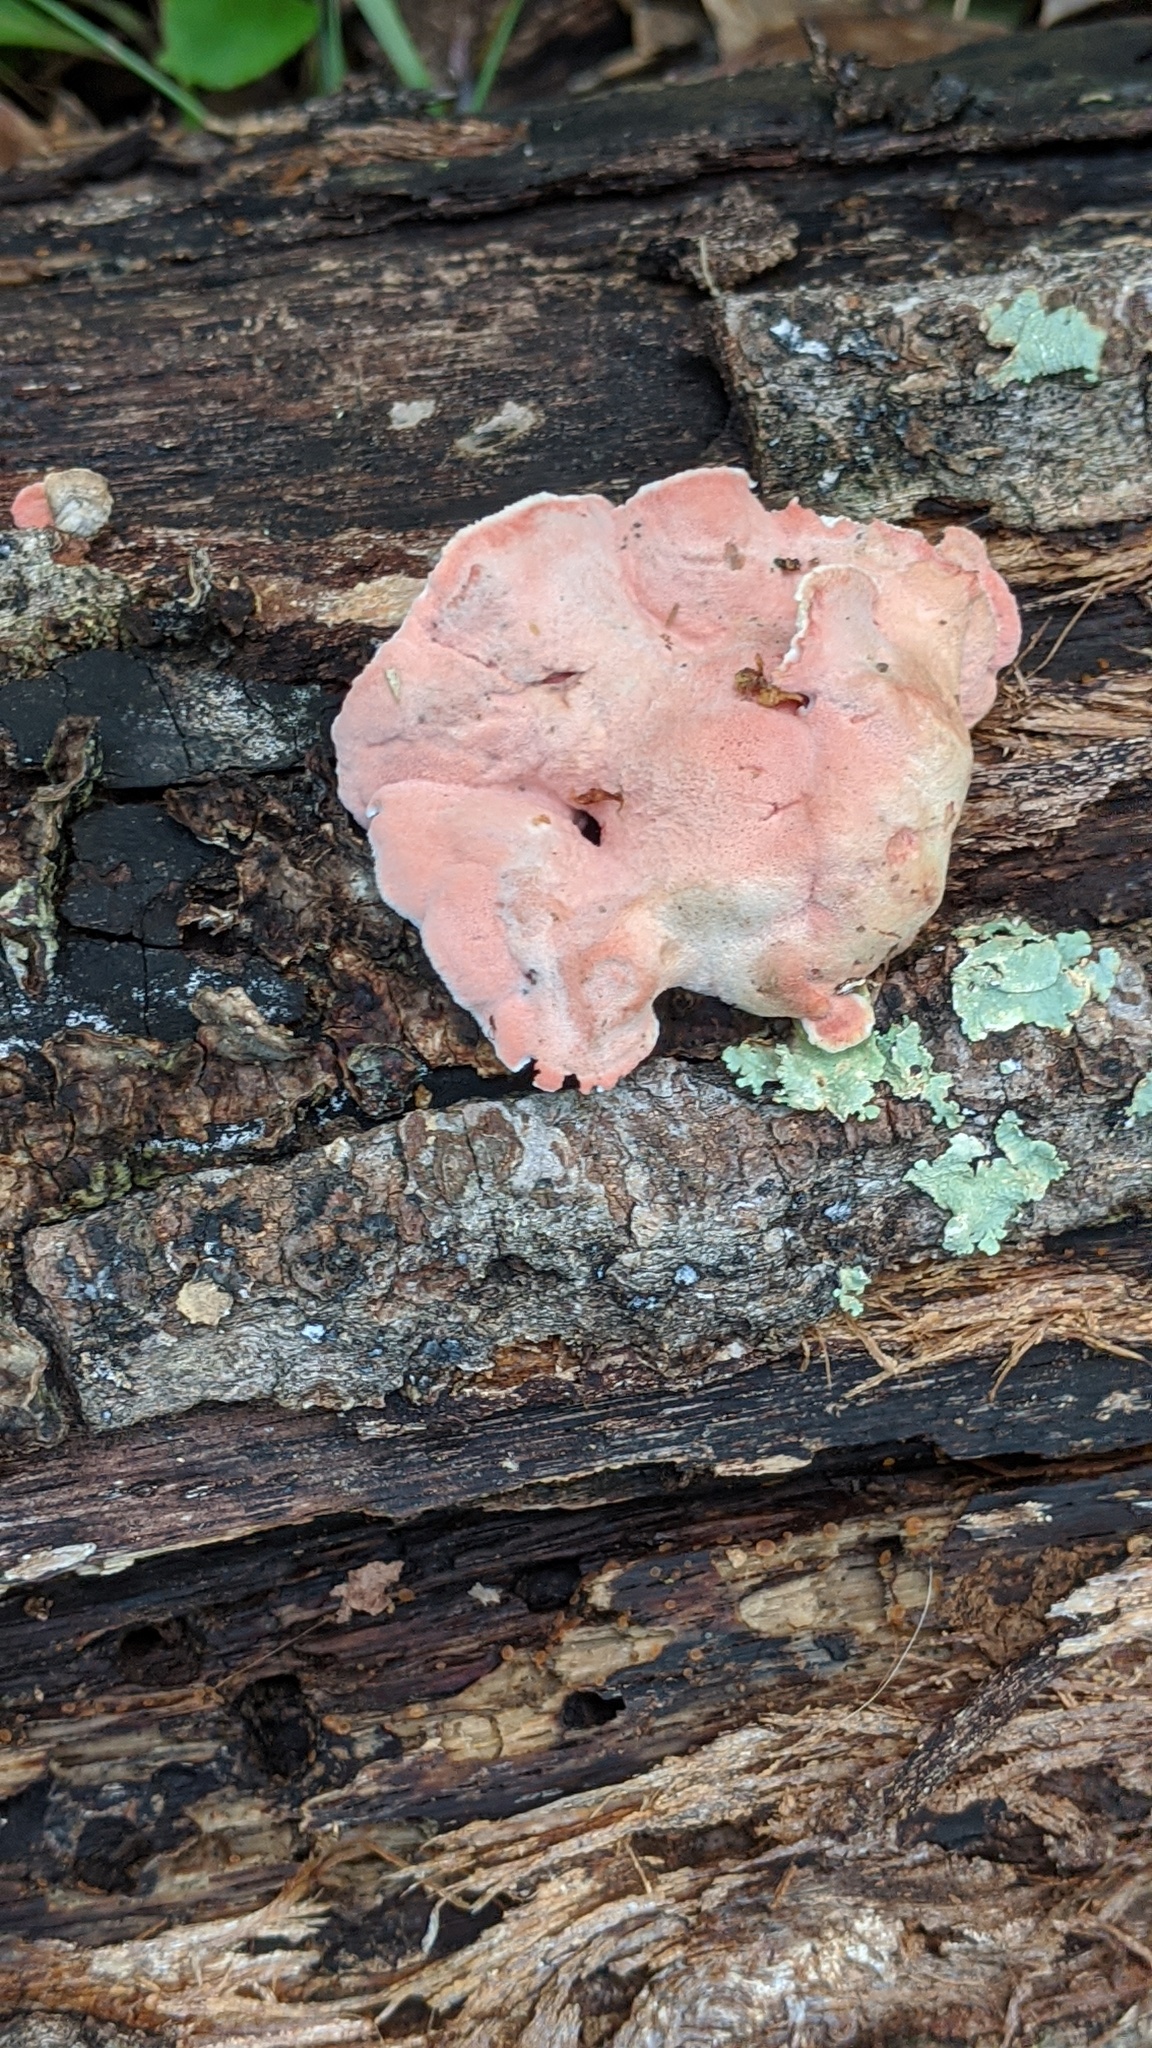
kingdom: Fungi
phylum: Basidiomycota
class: Agaricomycetes
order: Polyporales
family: Irpicaceae
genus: Byssomerulius
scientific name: Byssomerulius incarnatus
